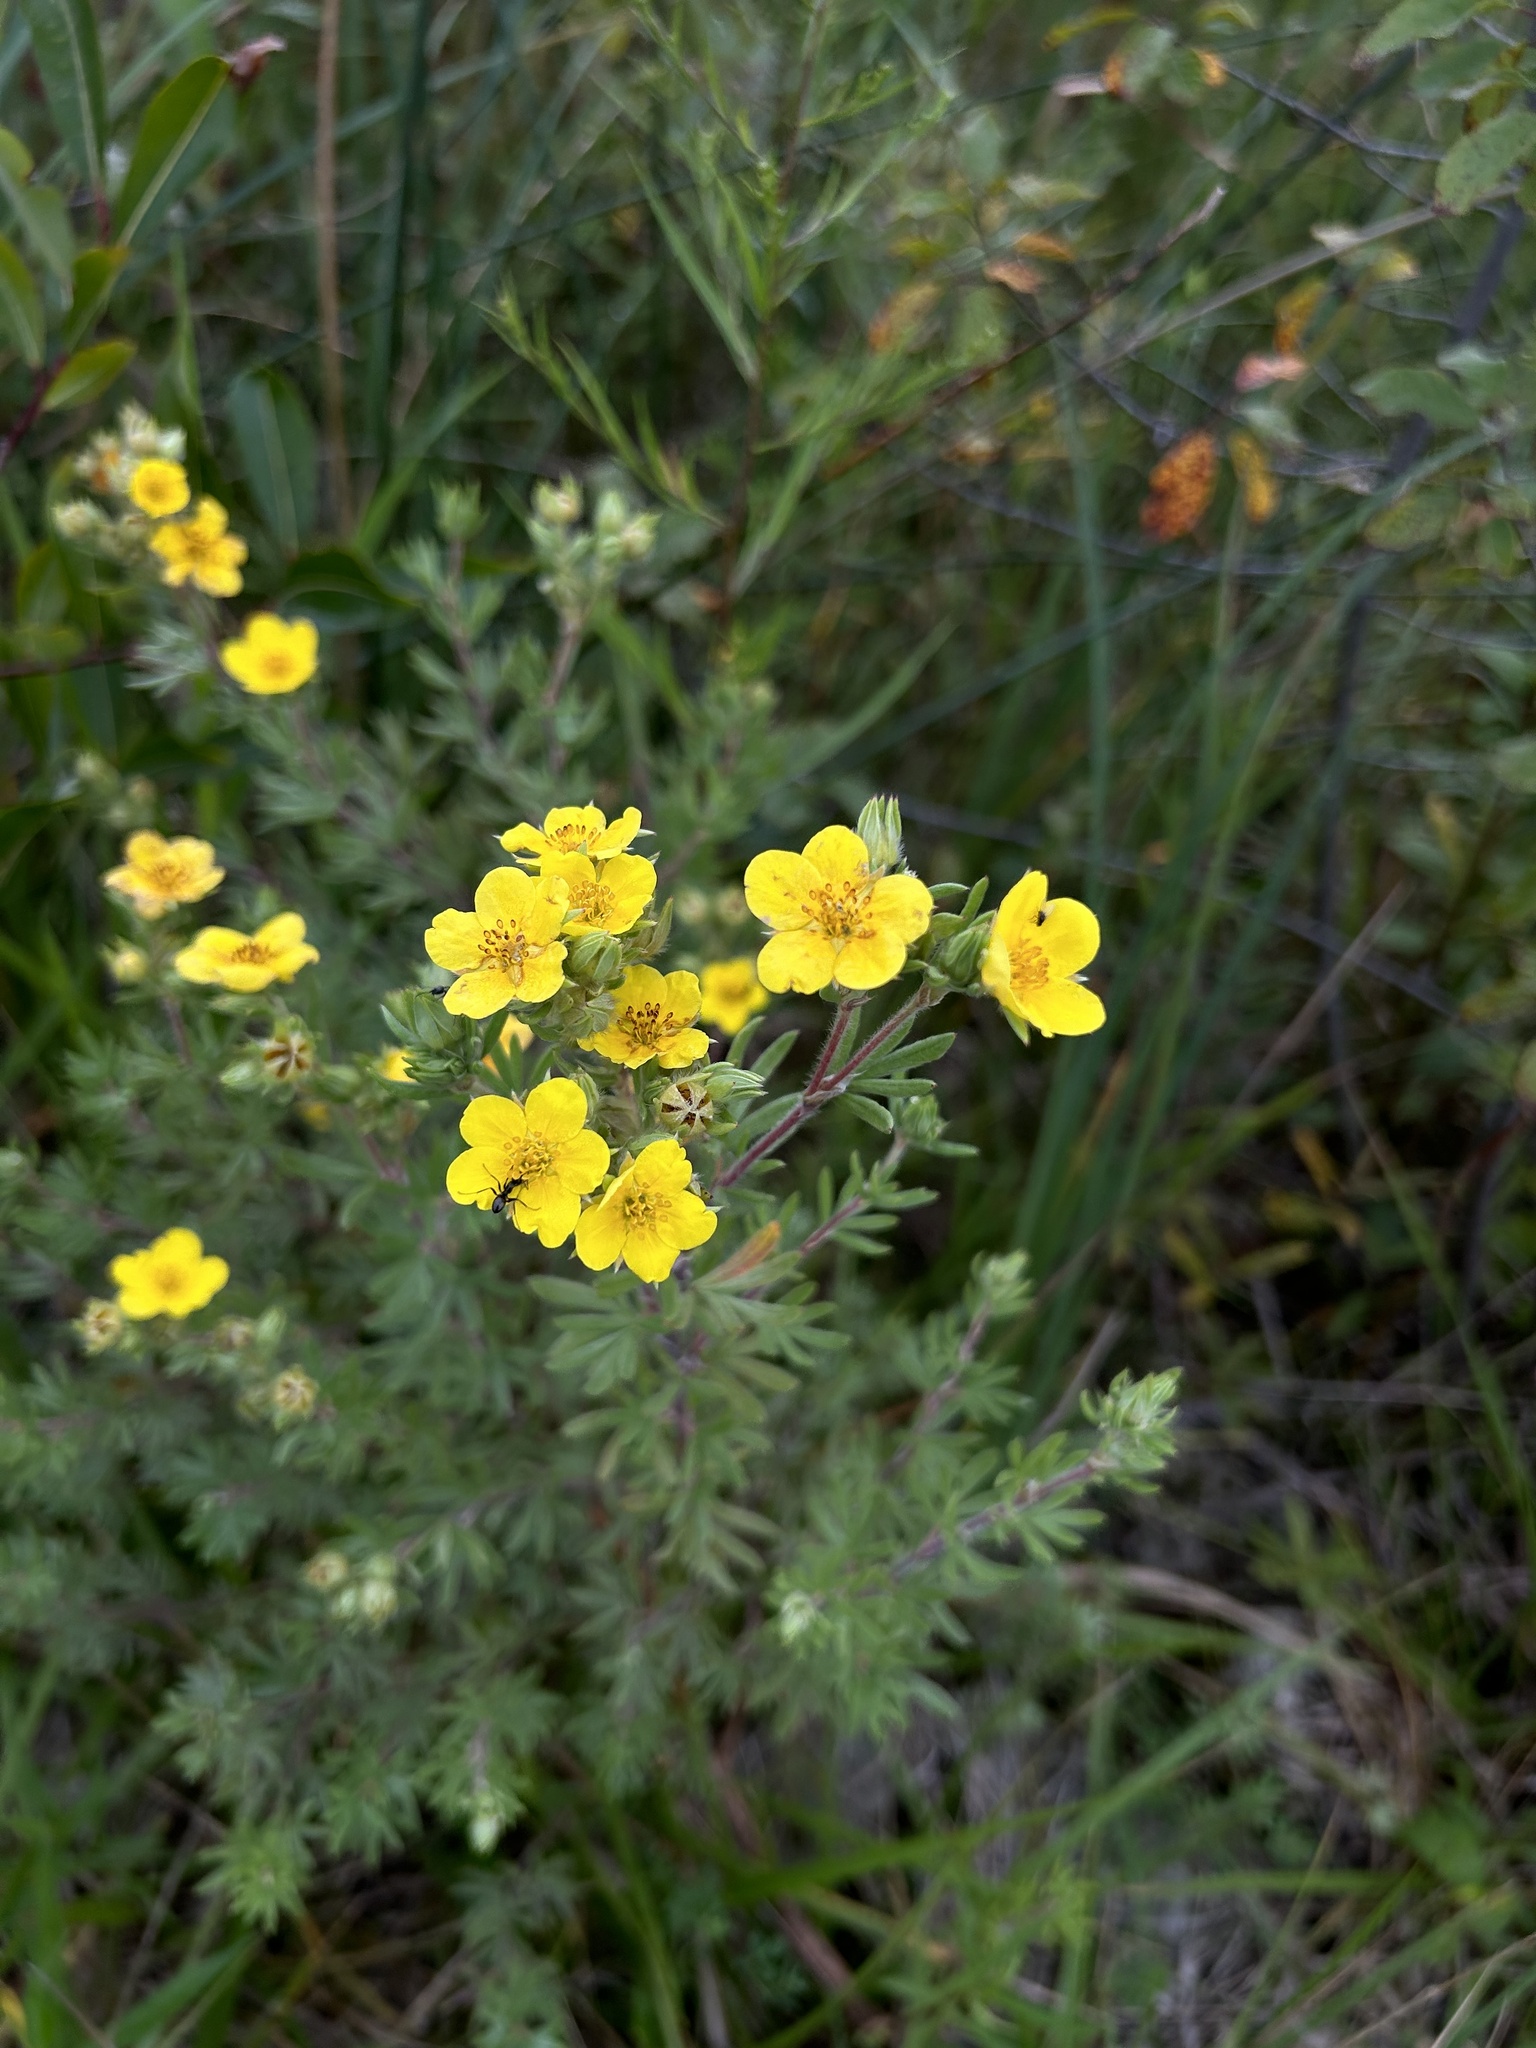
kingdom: Plantae
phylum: Tracheophyta
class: Magnoliopsida
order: Rosales
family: Rosaceae
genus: Dasiphora
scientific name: Dasiphora fruticosa
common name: Shrubby cinquefoil
